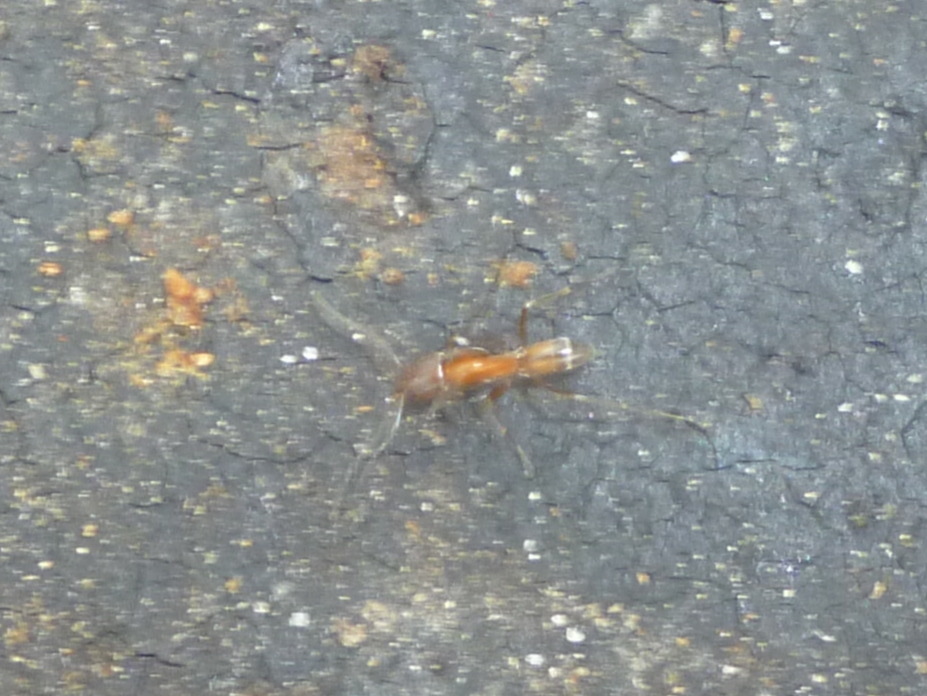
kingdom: Animalia
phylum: Arthropoda
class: Insecta
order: Hymenoptera
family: Formicidae
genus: Dorymyrmex
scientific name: Dorymyrmex bureni
